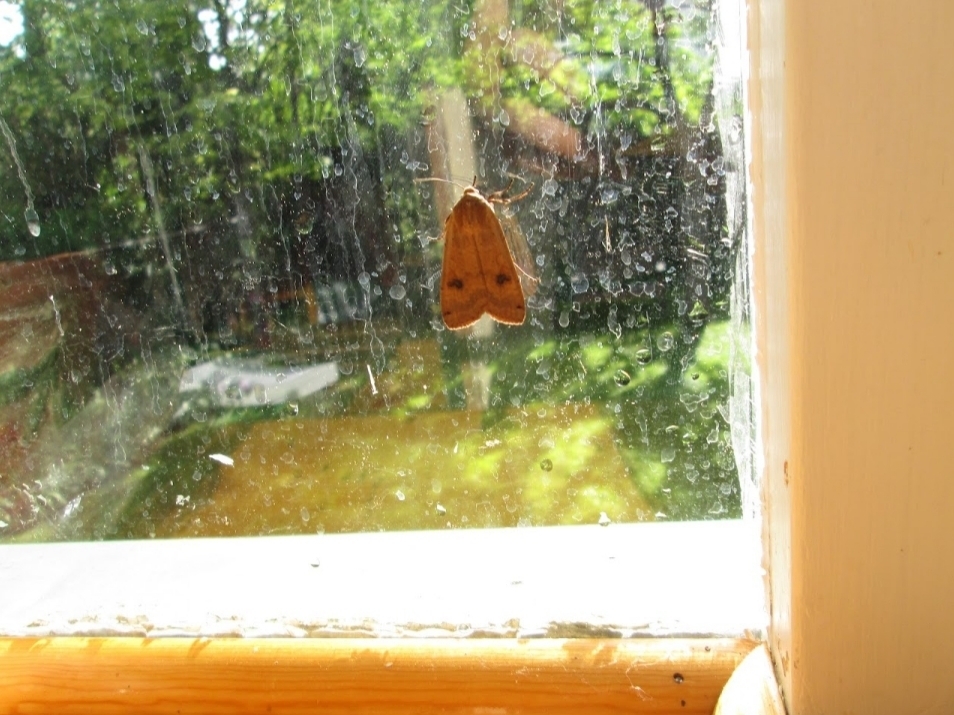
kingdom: Animalia
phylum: Arthropoda
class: Insecta
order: Lepidoptera
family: Noctuidae
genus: Noctua
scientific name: Noctua pronuba
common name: Large yellow underwing
